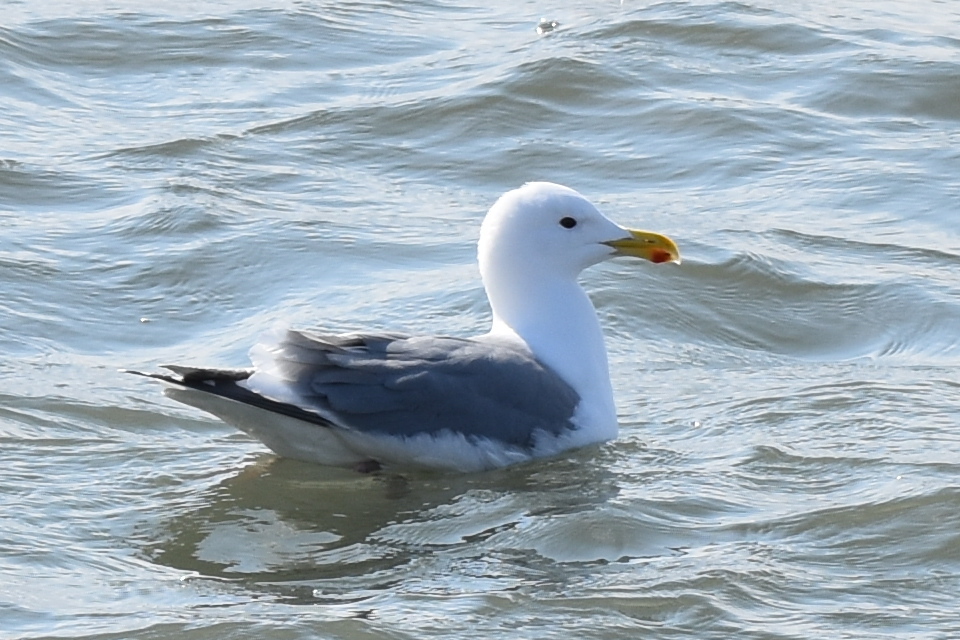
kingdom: Animalia
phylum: Chordata
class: Aves
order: Charadriiformes
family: Laridae
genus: Larus
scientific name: Larus schistisagus
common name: Slaty-backed gull
